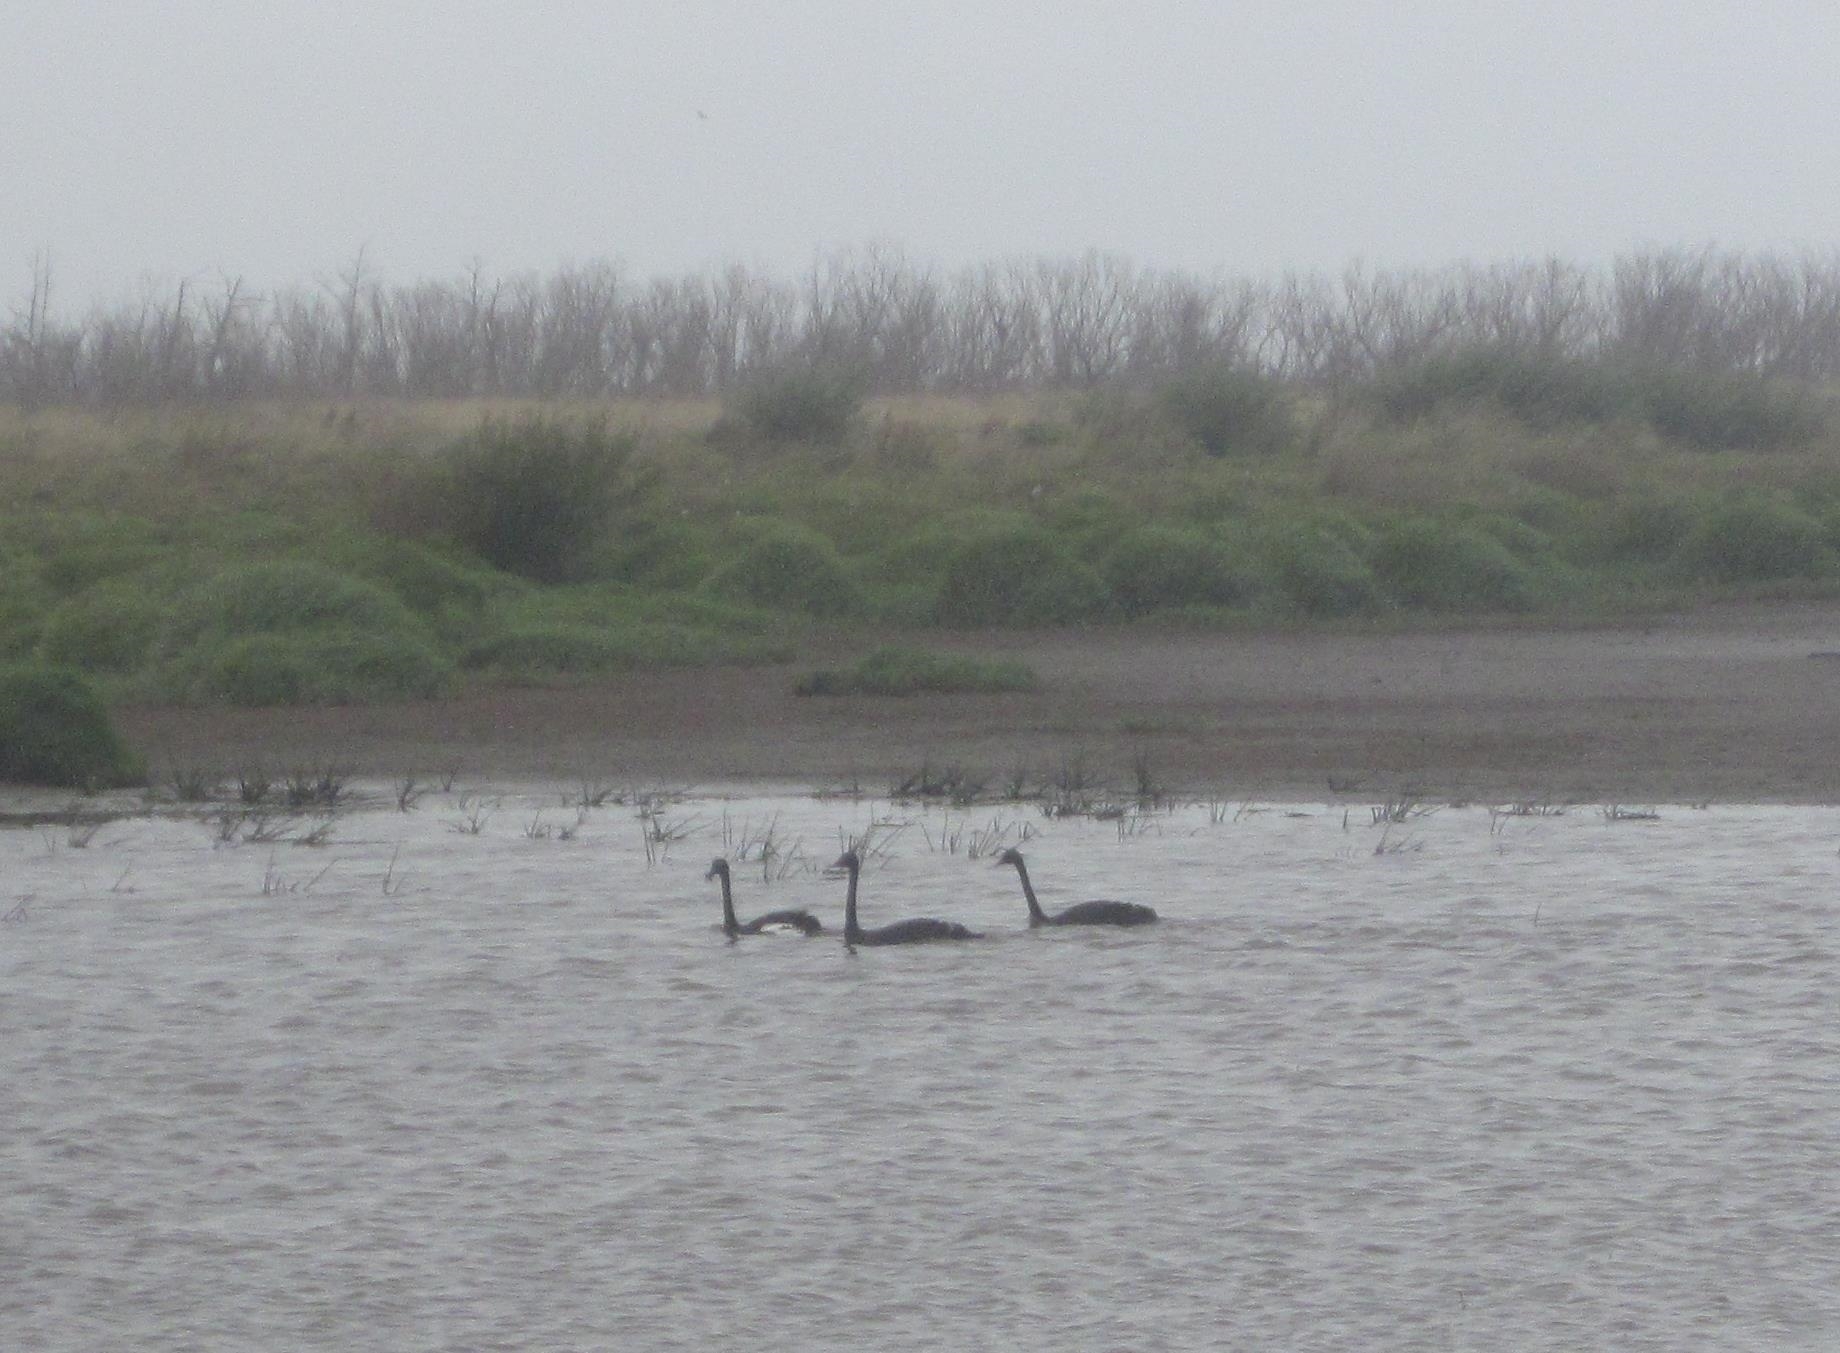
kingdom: Animalia
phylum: Chordata
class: Aves
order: Anseriformes
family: Anatidae
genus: Cygnus
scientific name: Cygnus atratus
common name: Black swan
